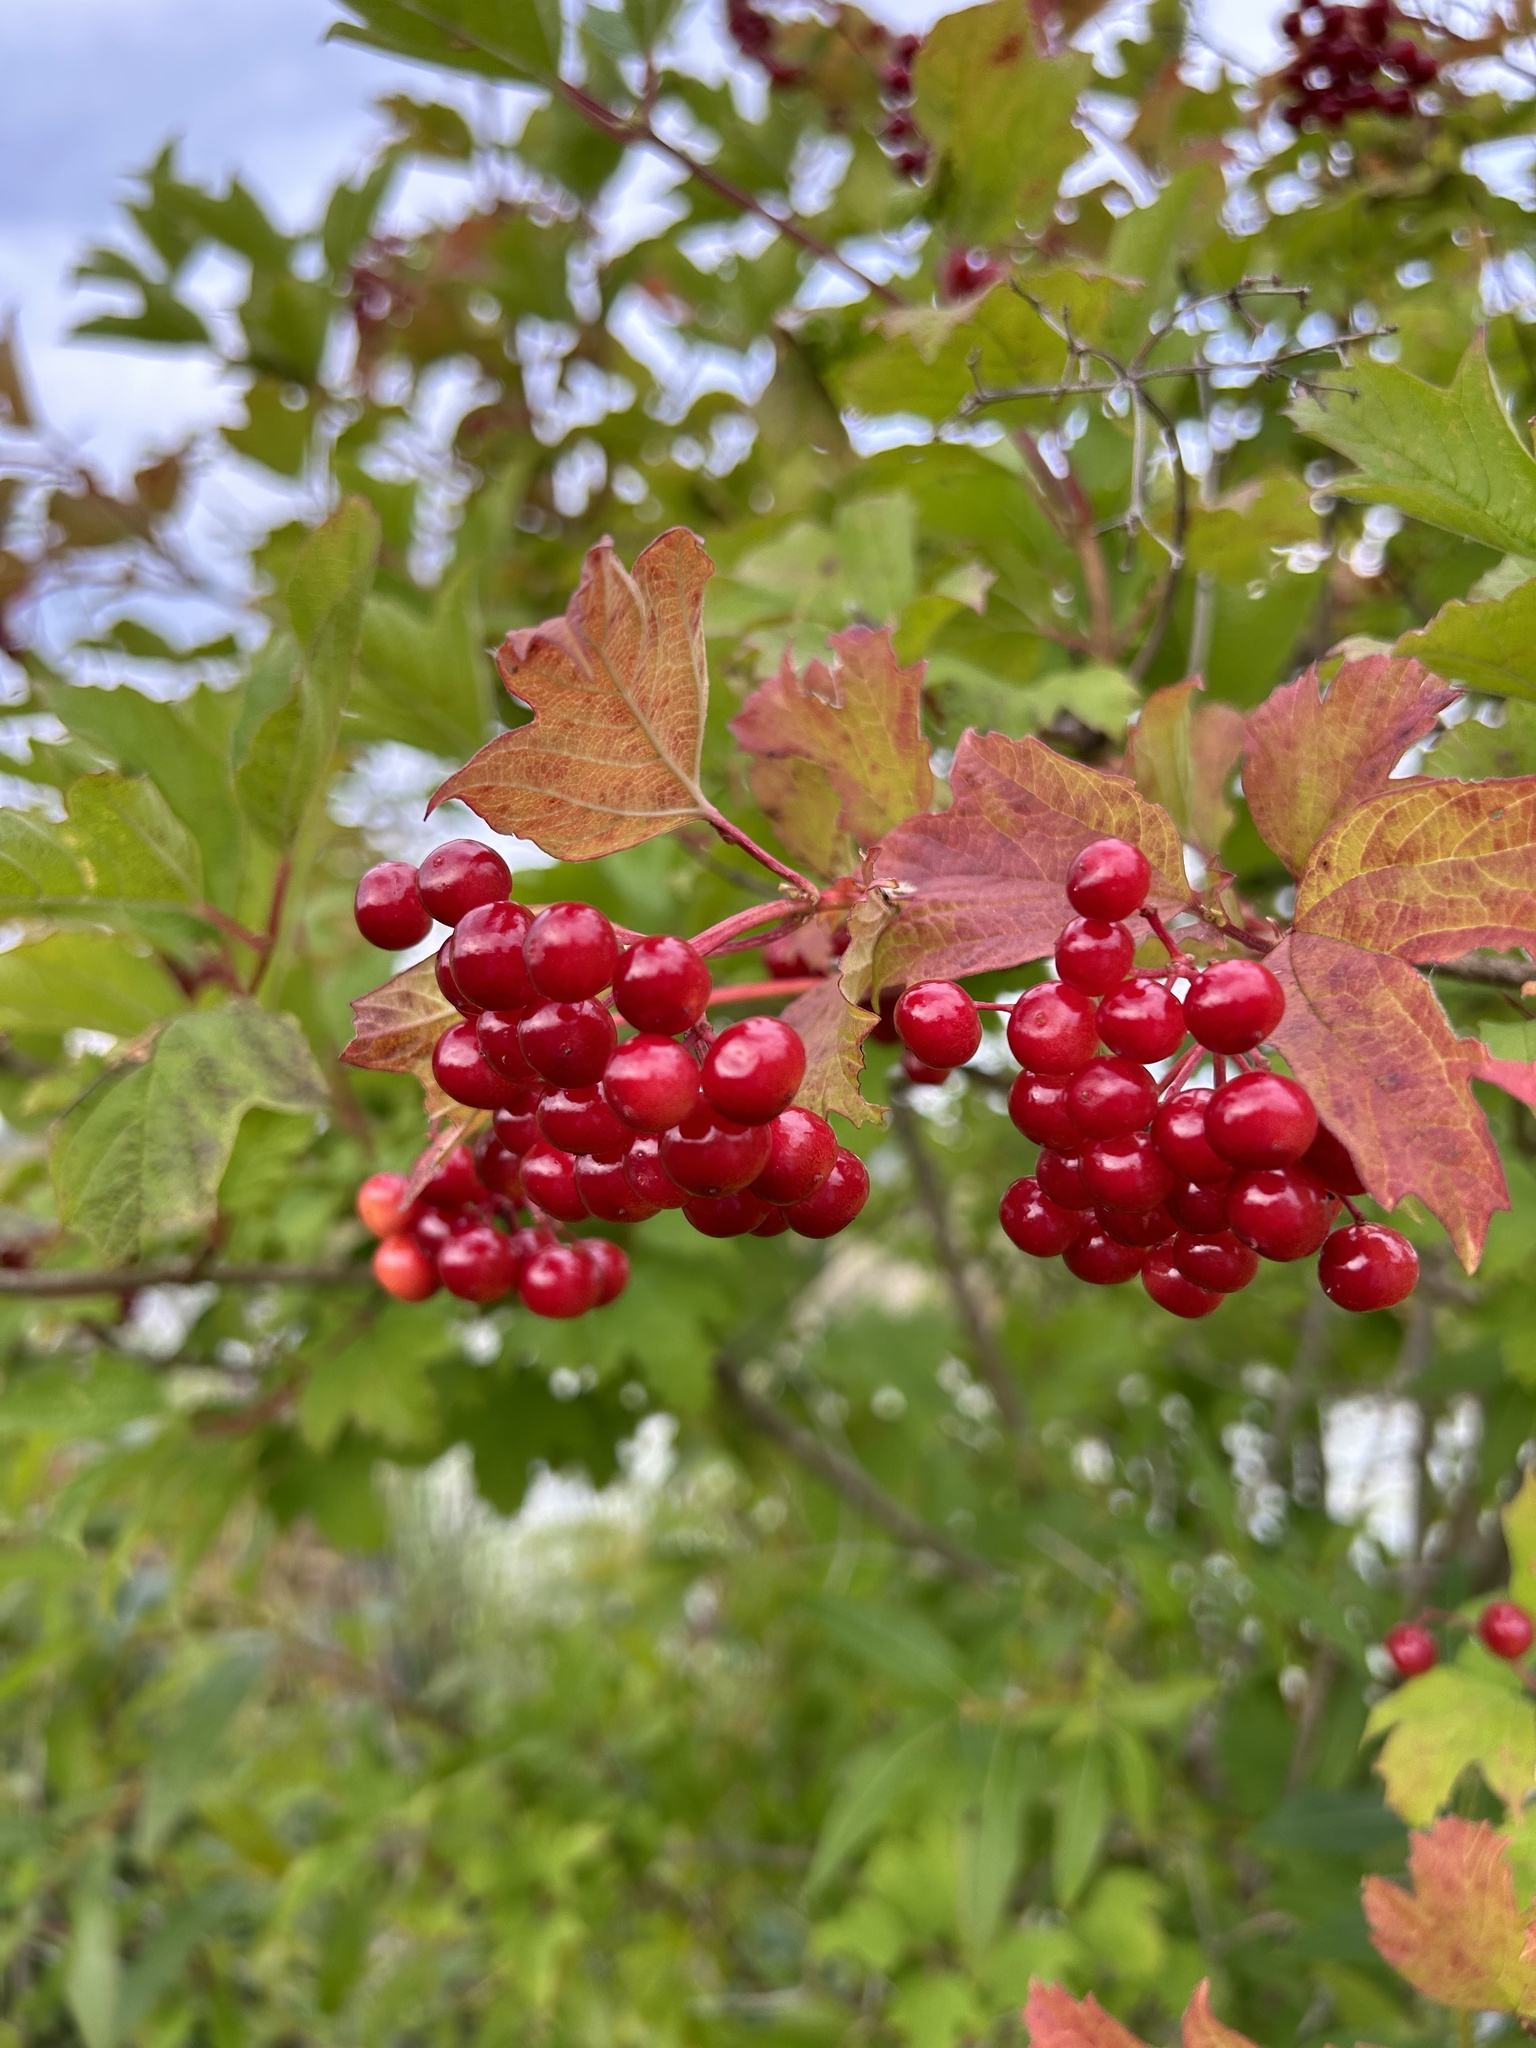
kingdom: Plantae
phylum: Tracheophyta
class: Magnoliopsida
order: Dipsacales
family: Viburnaceae
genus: Viburnum
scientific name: Viburnum opulus
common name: Guelder-rose
